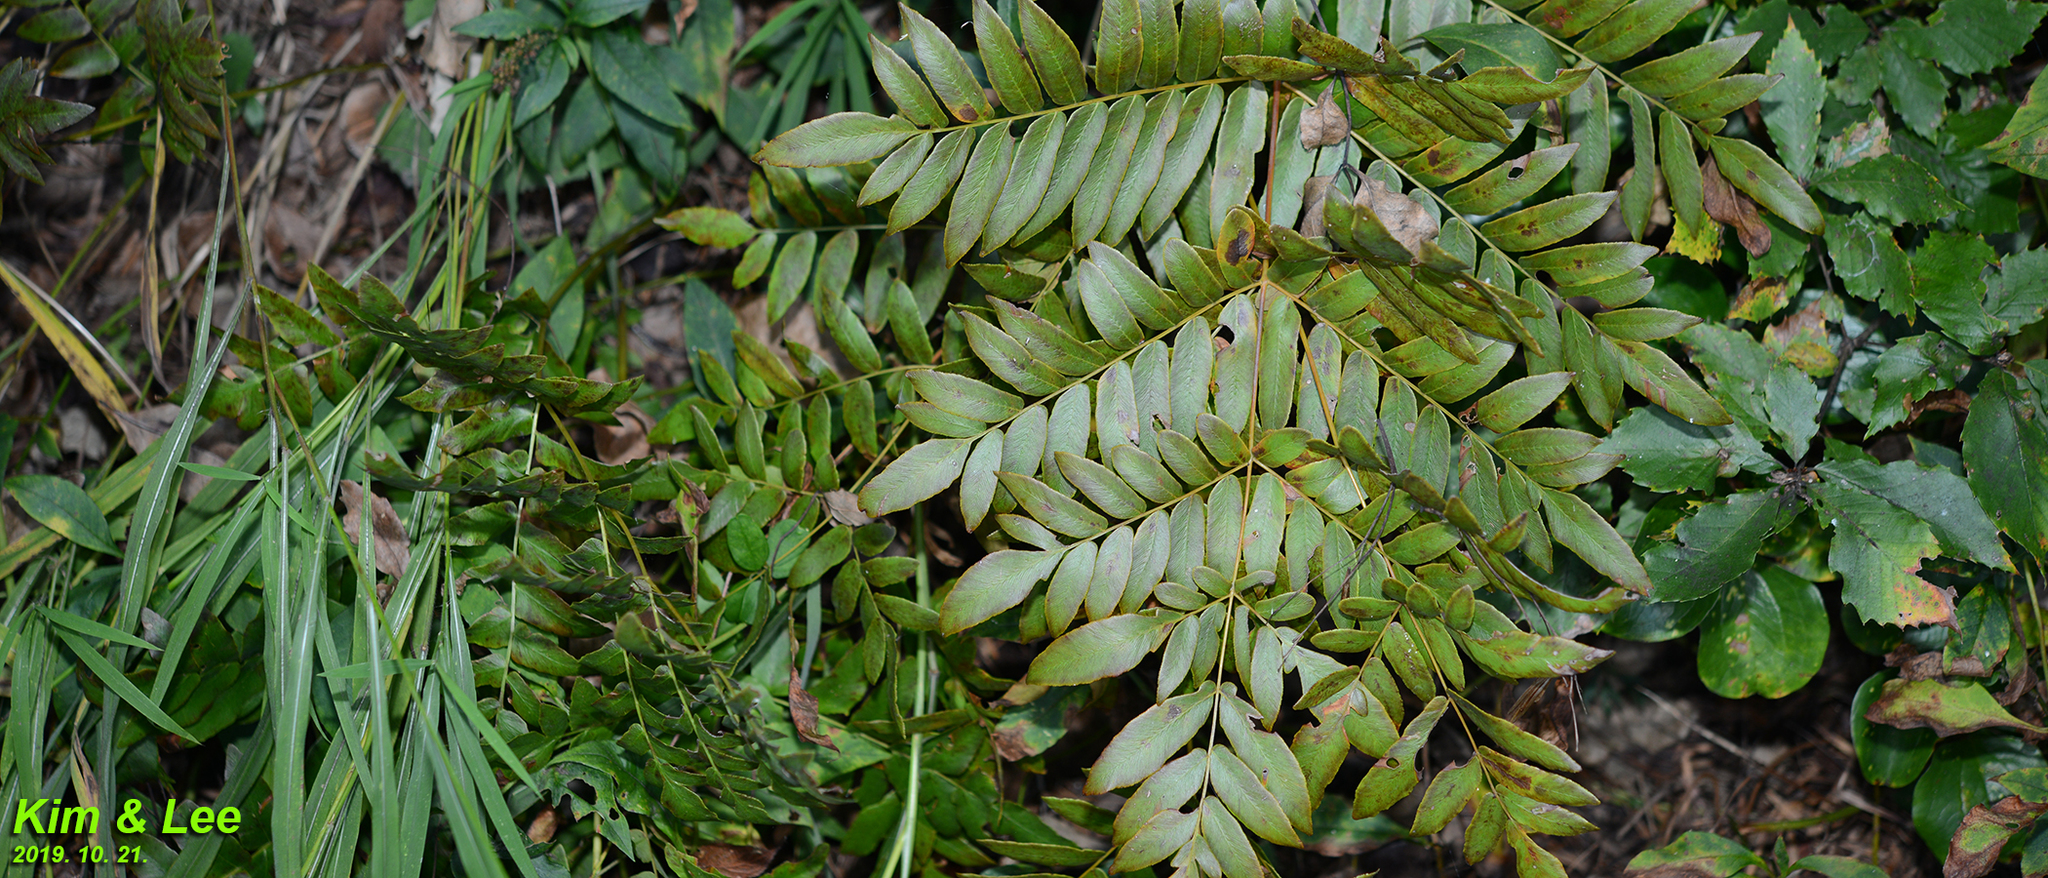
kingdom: Plantae
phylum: Tracheophyta
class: Polypodiopsida
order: Osmundales
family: Osmundaceae
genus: Osmunda
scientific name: Osmunda japonica
